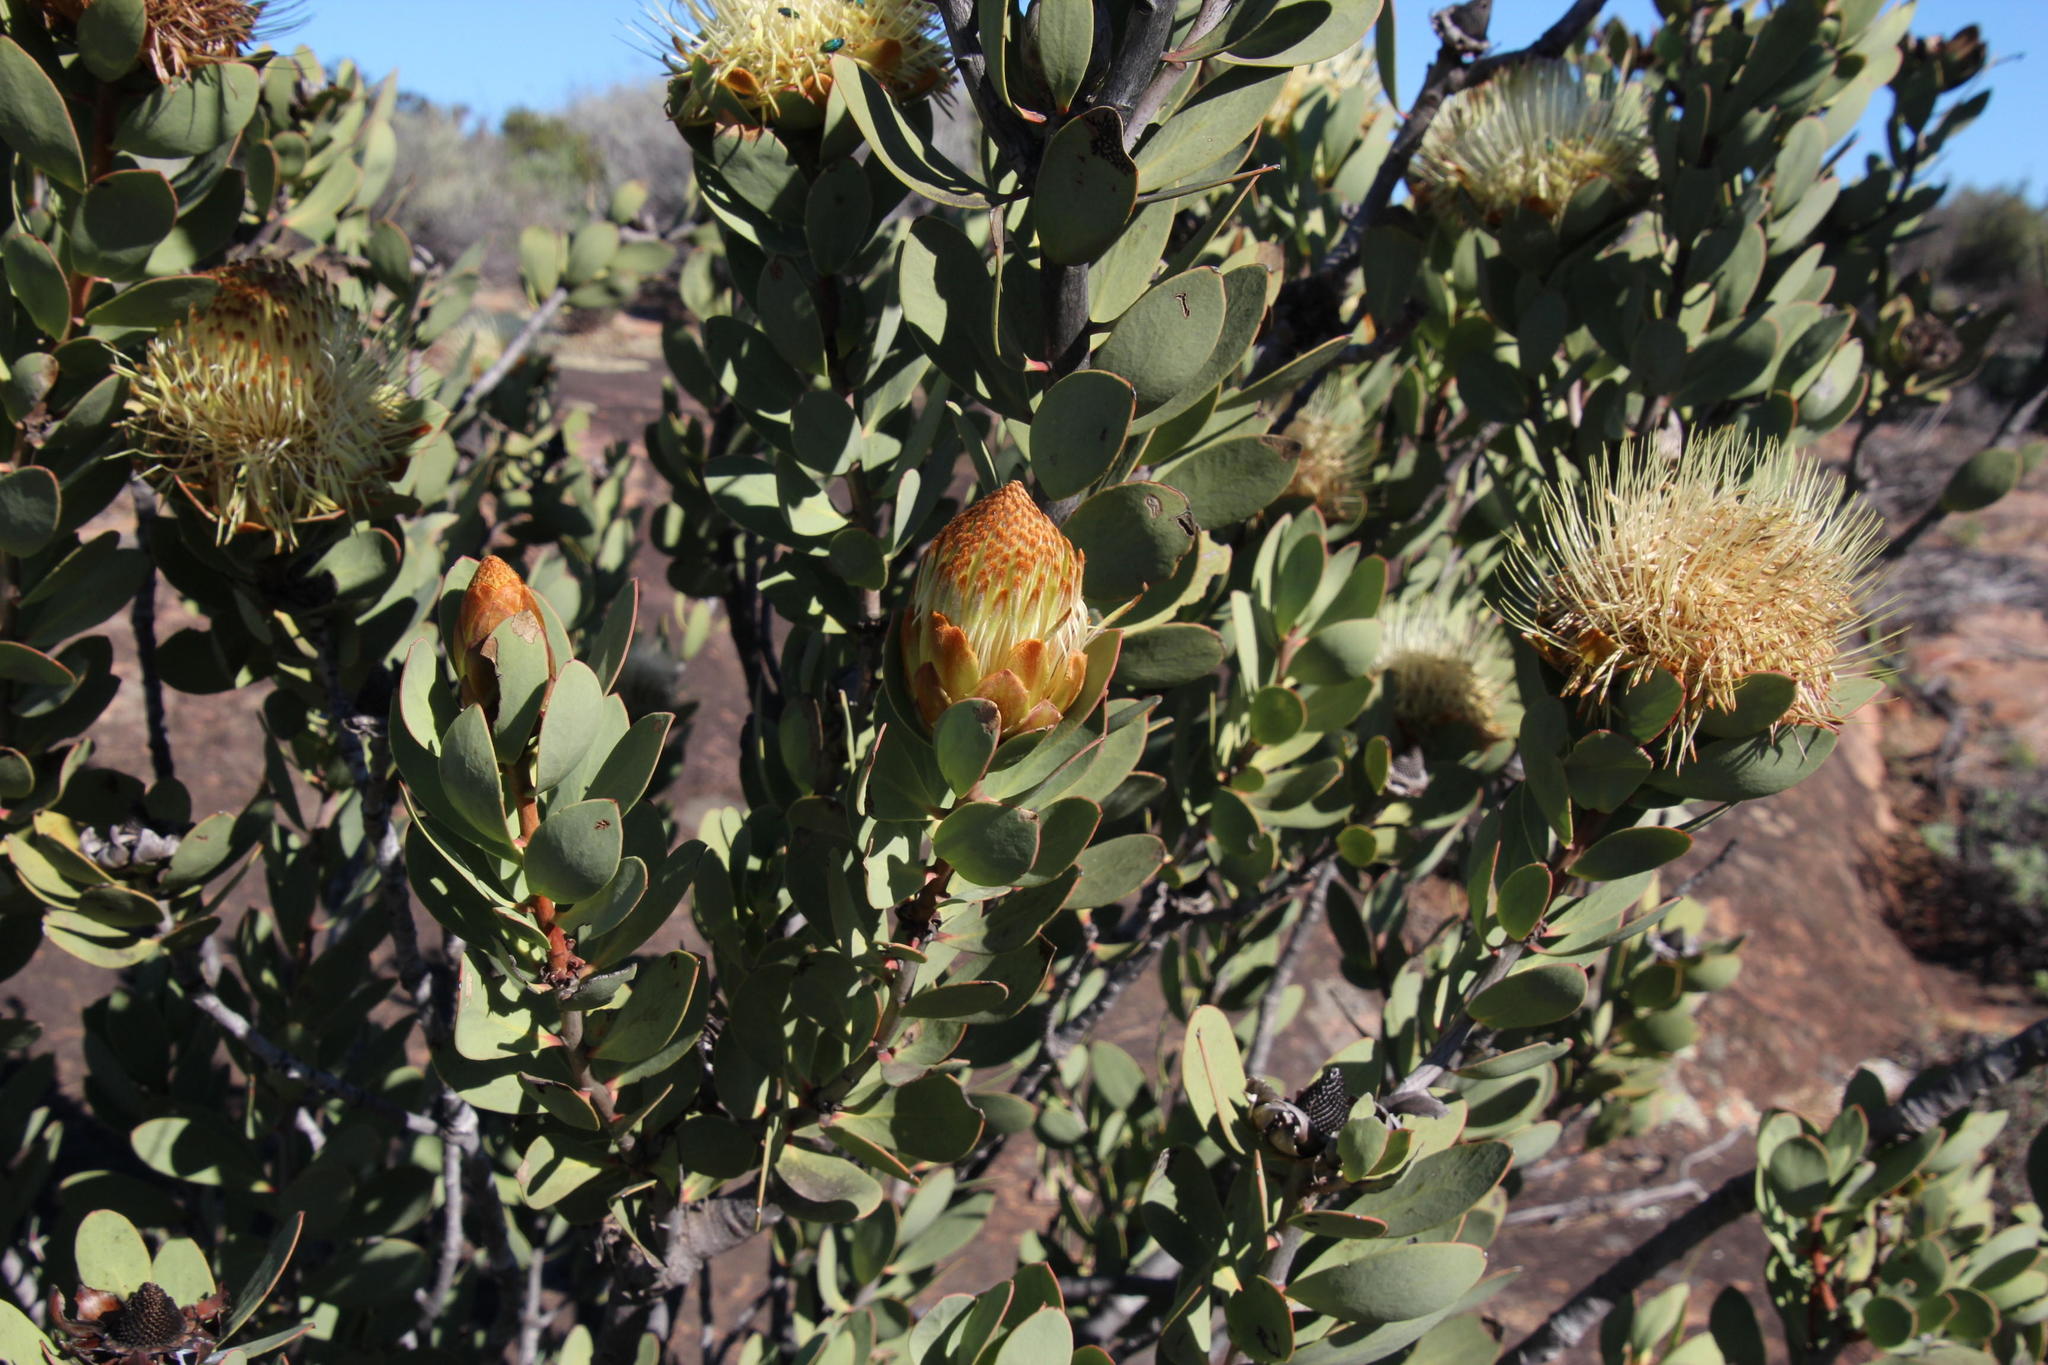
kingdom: Plantae
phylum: Tracheophyta
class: Magnoliopsida
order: Proteales
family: Proteaceae
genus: Protea
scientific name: Protea glabra
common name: Chestnut sugarbush
